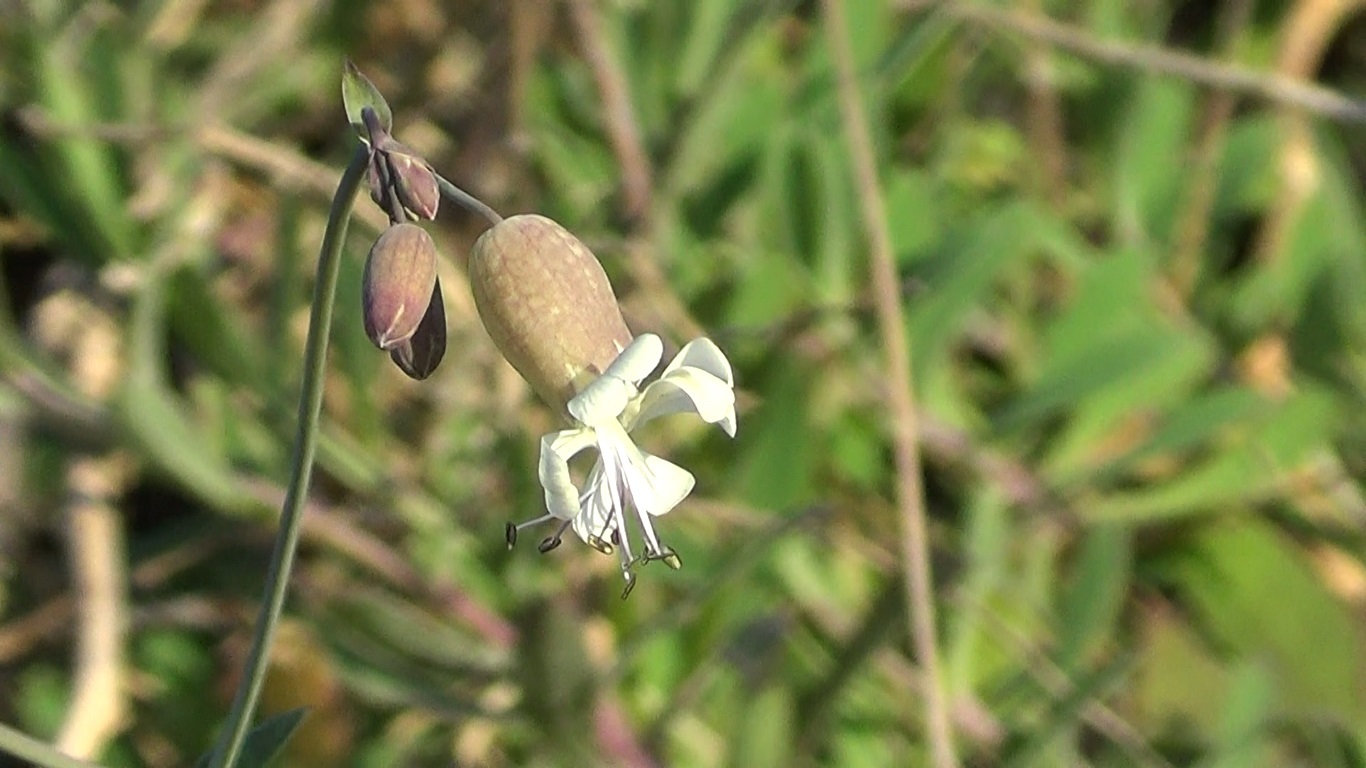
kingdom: Plantae
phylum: Tracheophyta
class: Magnoliopsida
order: Caryophyllales
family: Caryophyllaceae
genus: Silene
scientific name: Silene vulgaris
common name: Bladder campion
